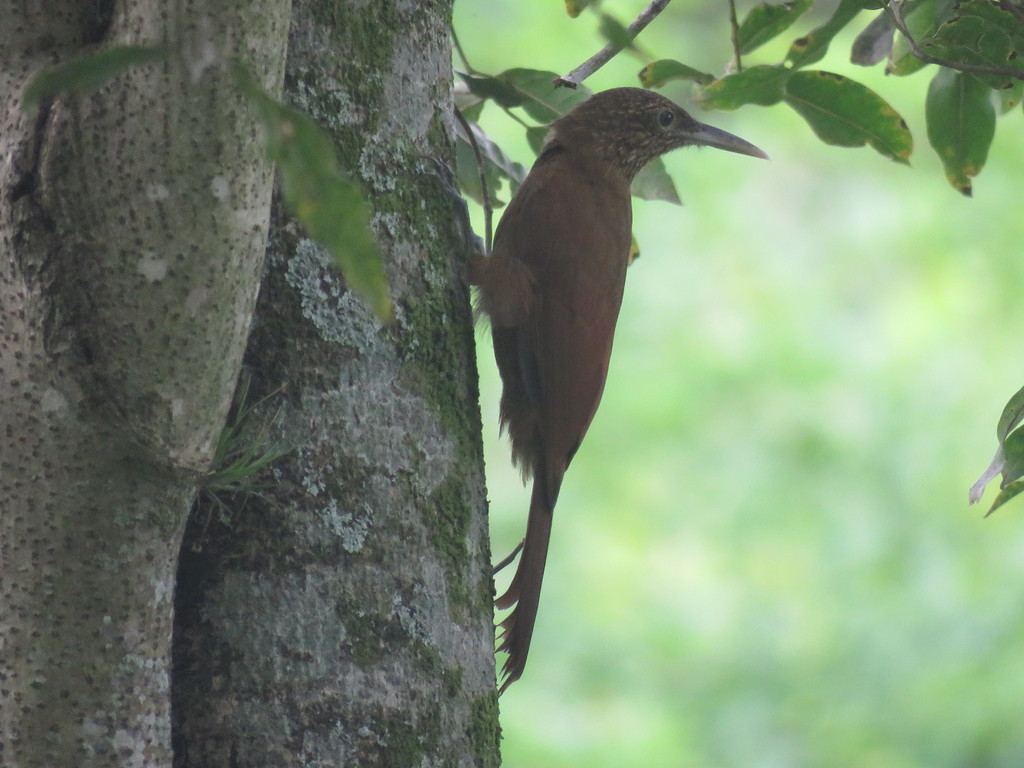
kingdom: Animalia
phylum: Chordata
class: Aves
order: Passeriformes
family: Furnariidae
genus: Dendrocolaptes
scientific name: Dendrocolaptes picumnus
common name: Black-banded woodcreeper
